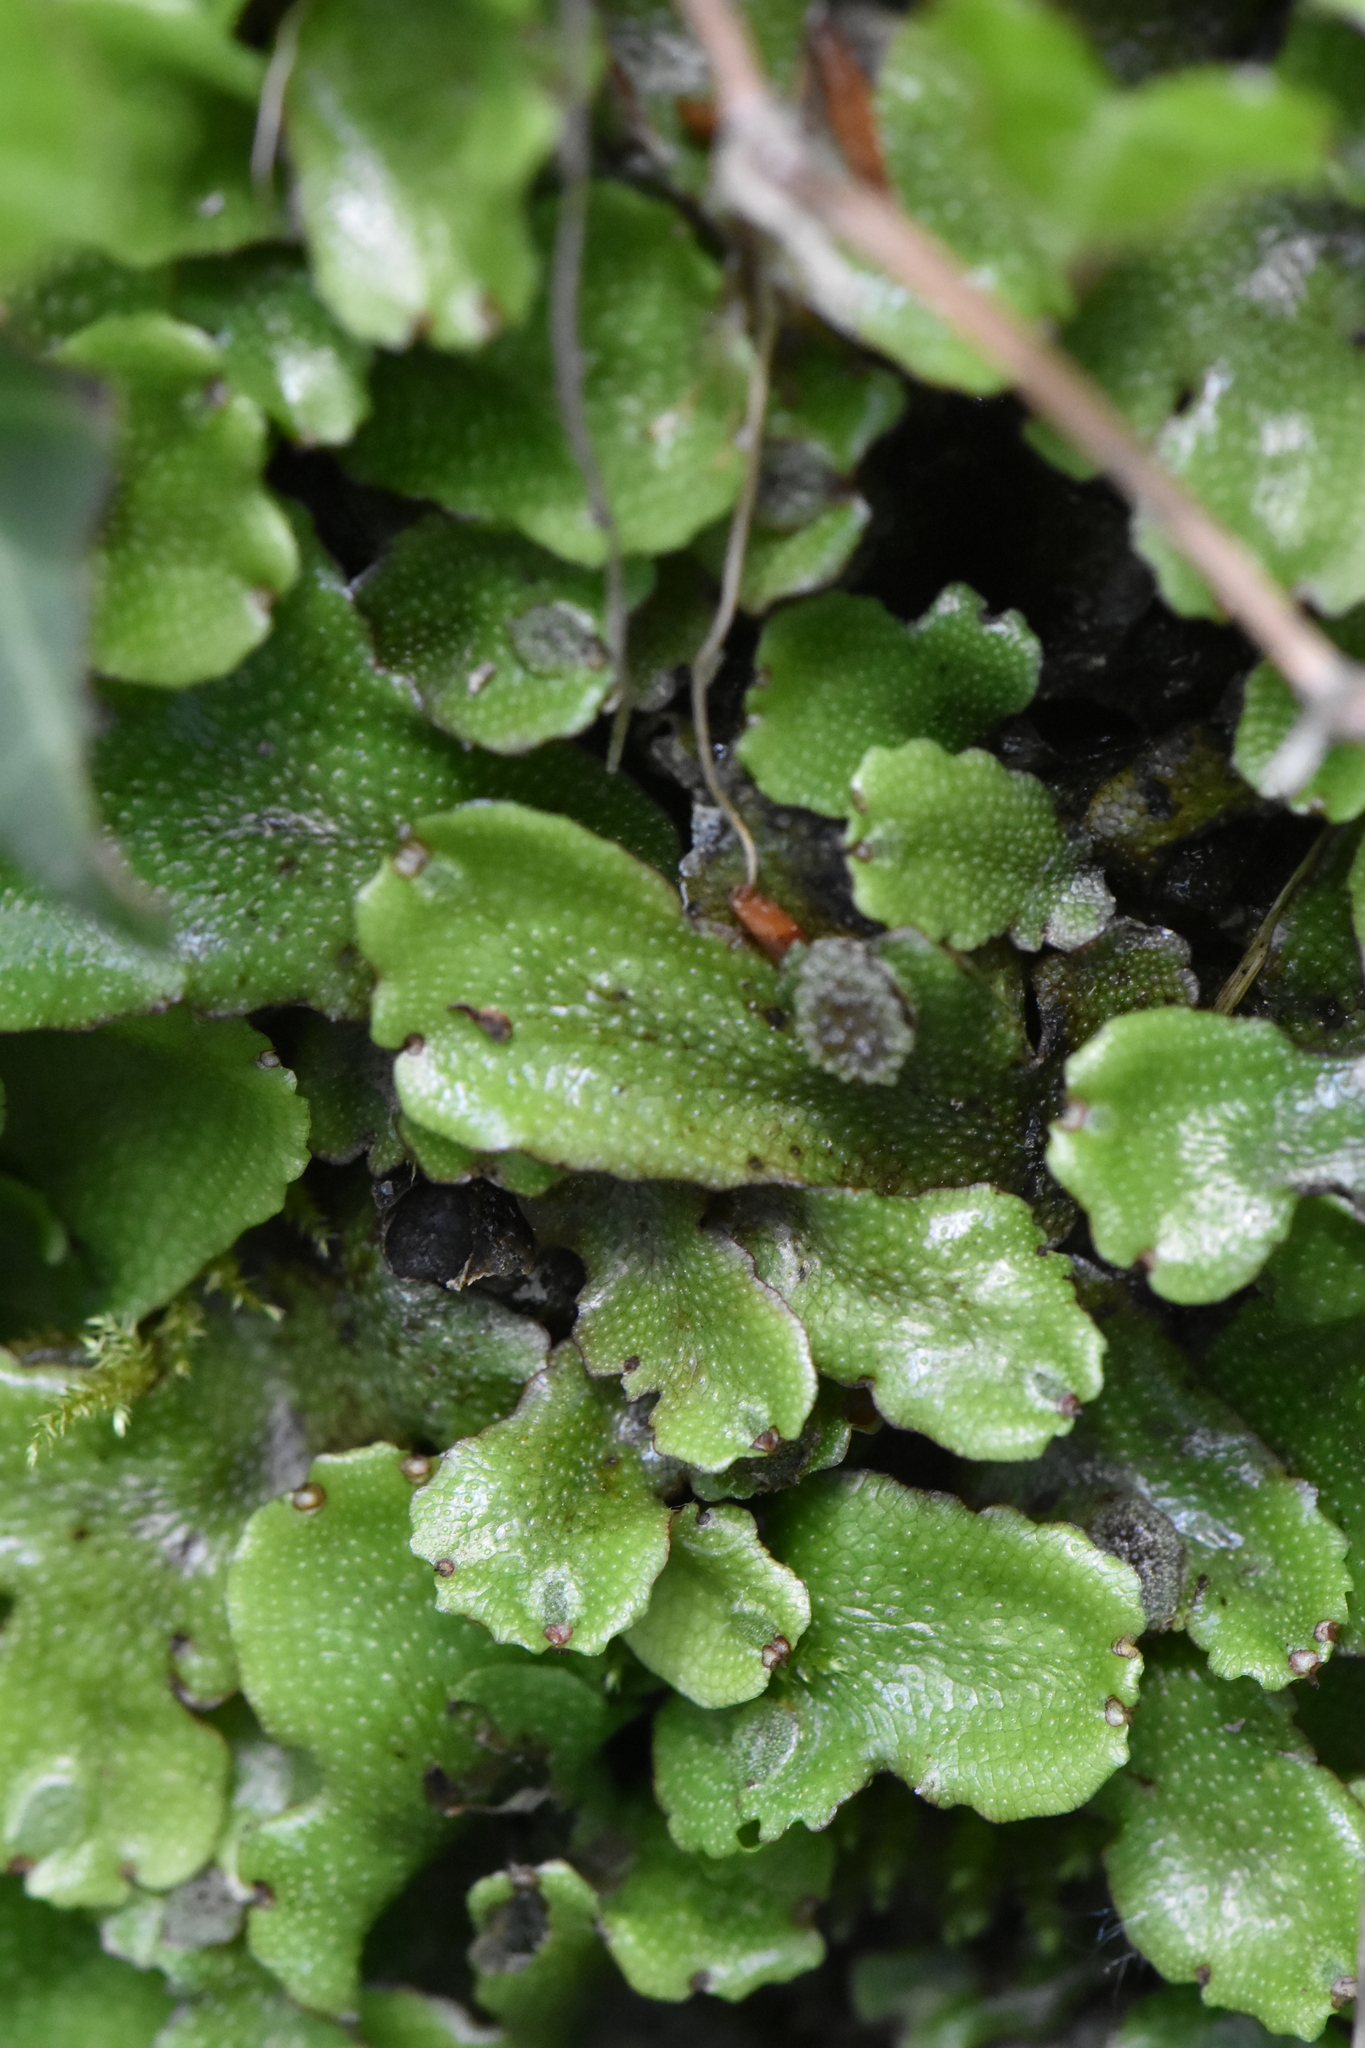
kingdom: Plantae
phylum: Marchantiophyta
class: Marchantiopsida
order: Marchantiales
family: Conocephalaceae
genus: Conocephalum
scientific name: Conocephalum conicum
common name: Great scented liverwort
